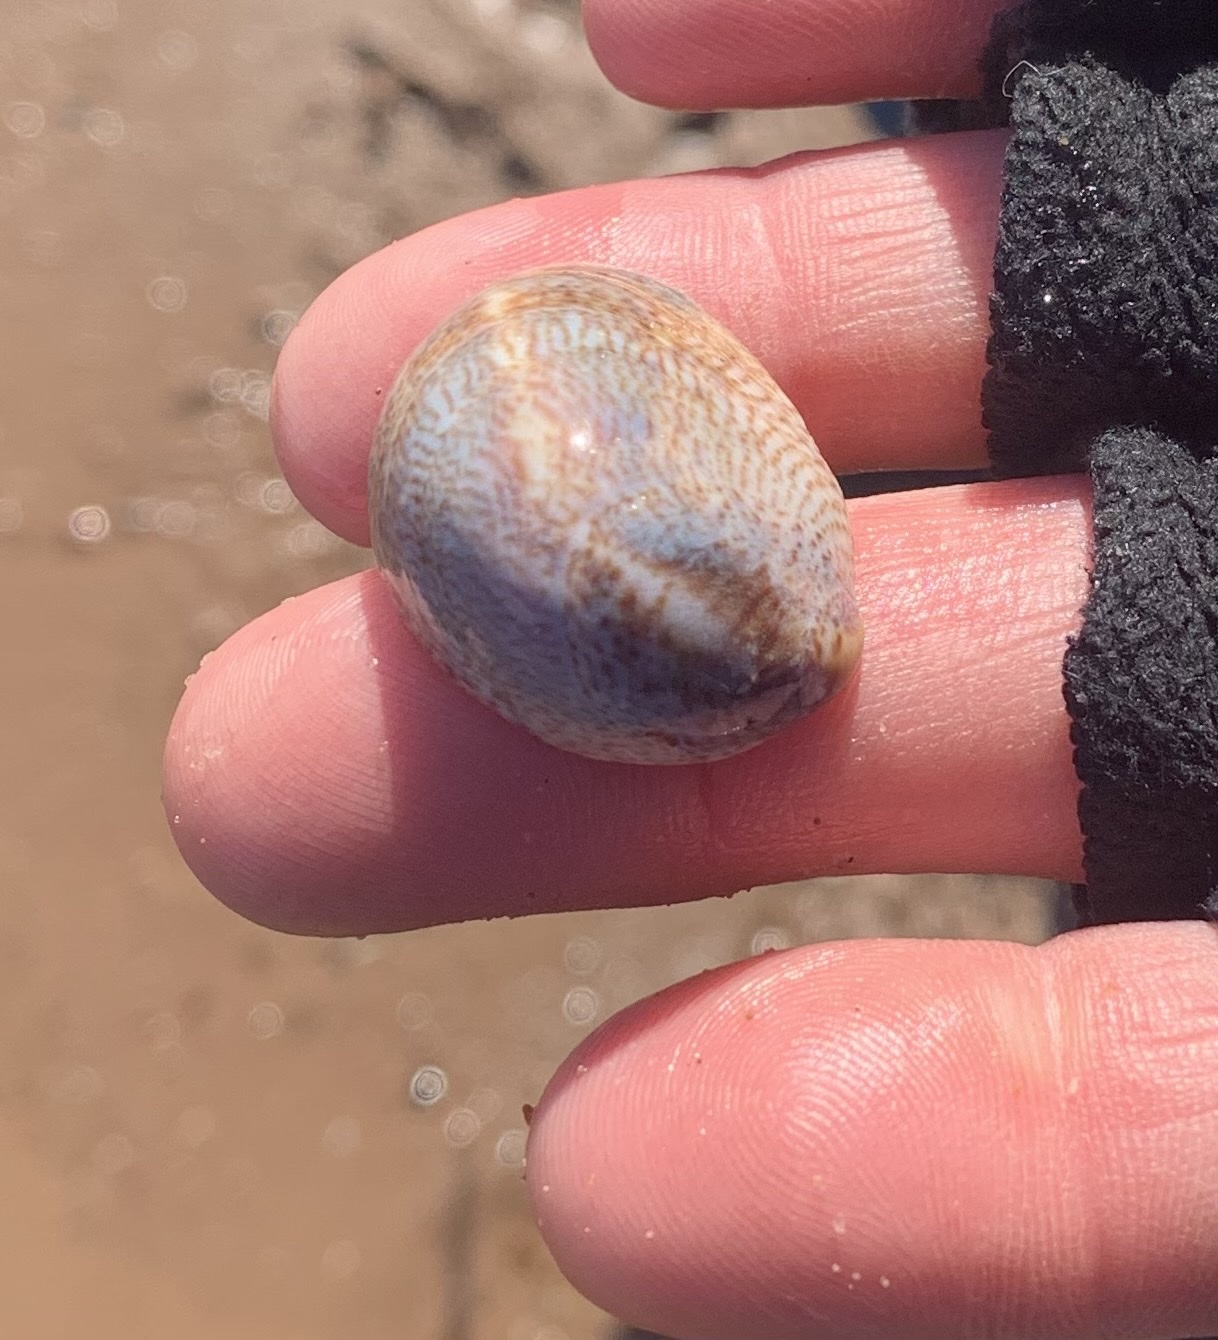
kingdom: Animalia
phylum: Mollusca
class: Gastropoda
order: Littorinimorpha
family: Calyptraeidae
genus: Crepidula
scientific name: Crepidula fornicata
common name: Slipper limpet
